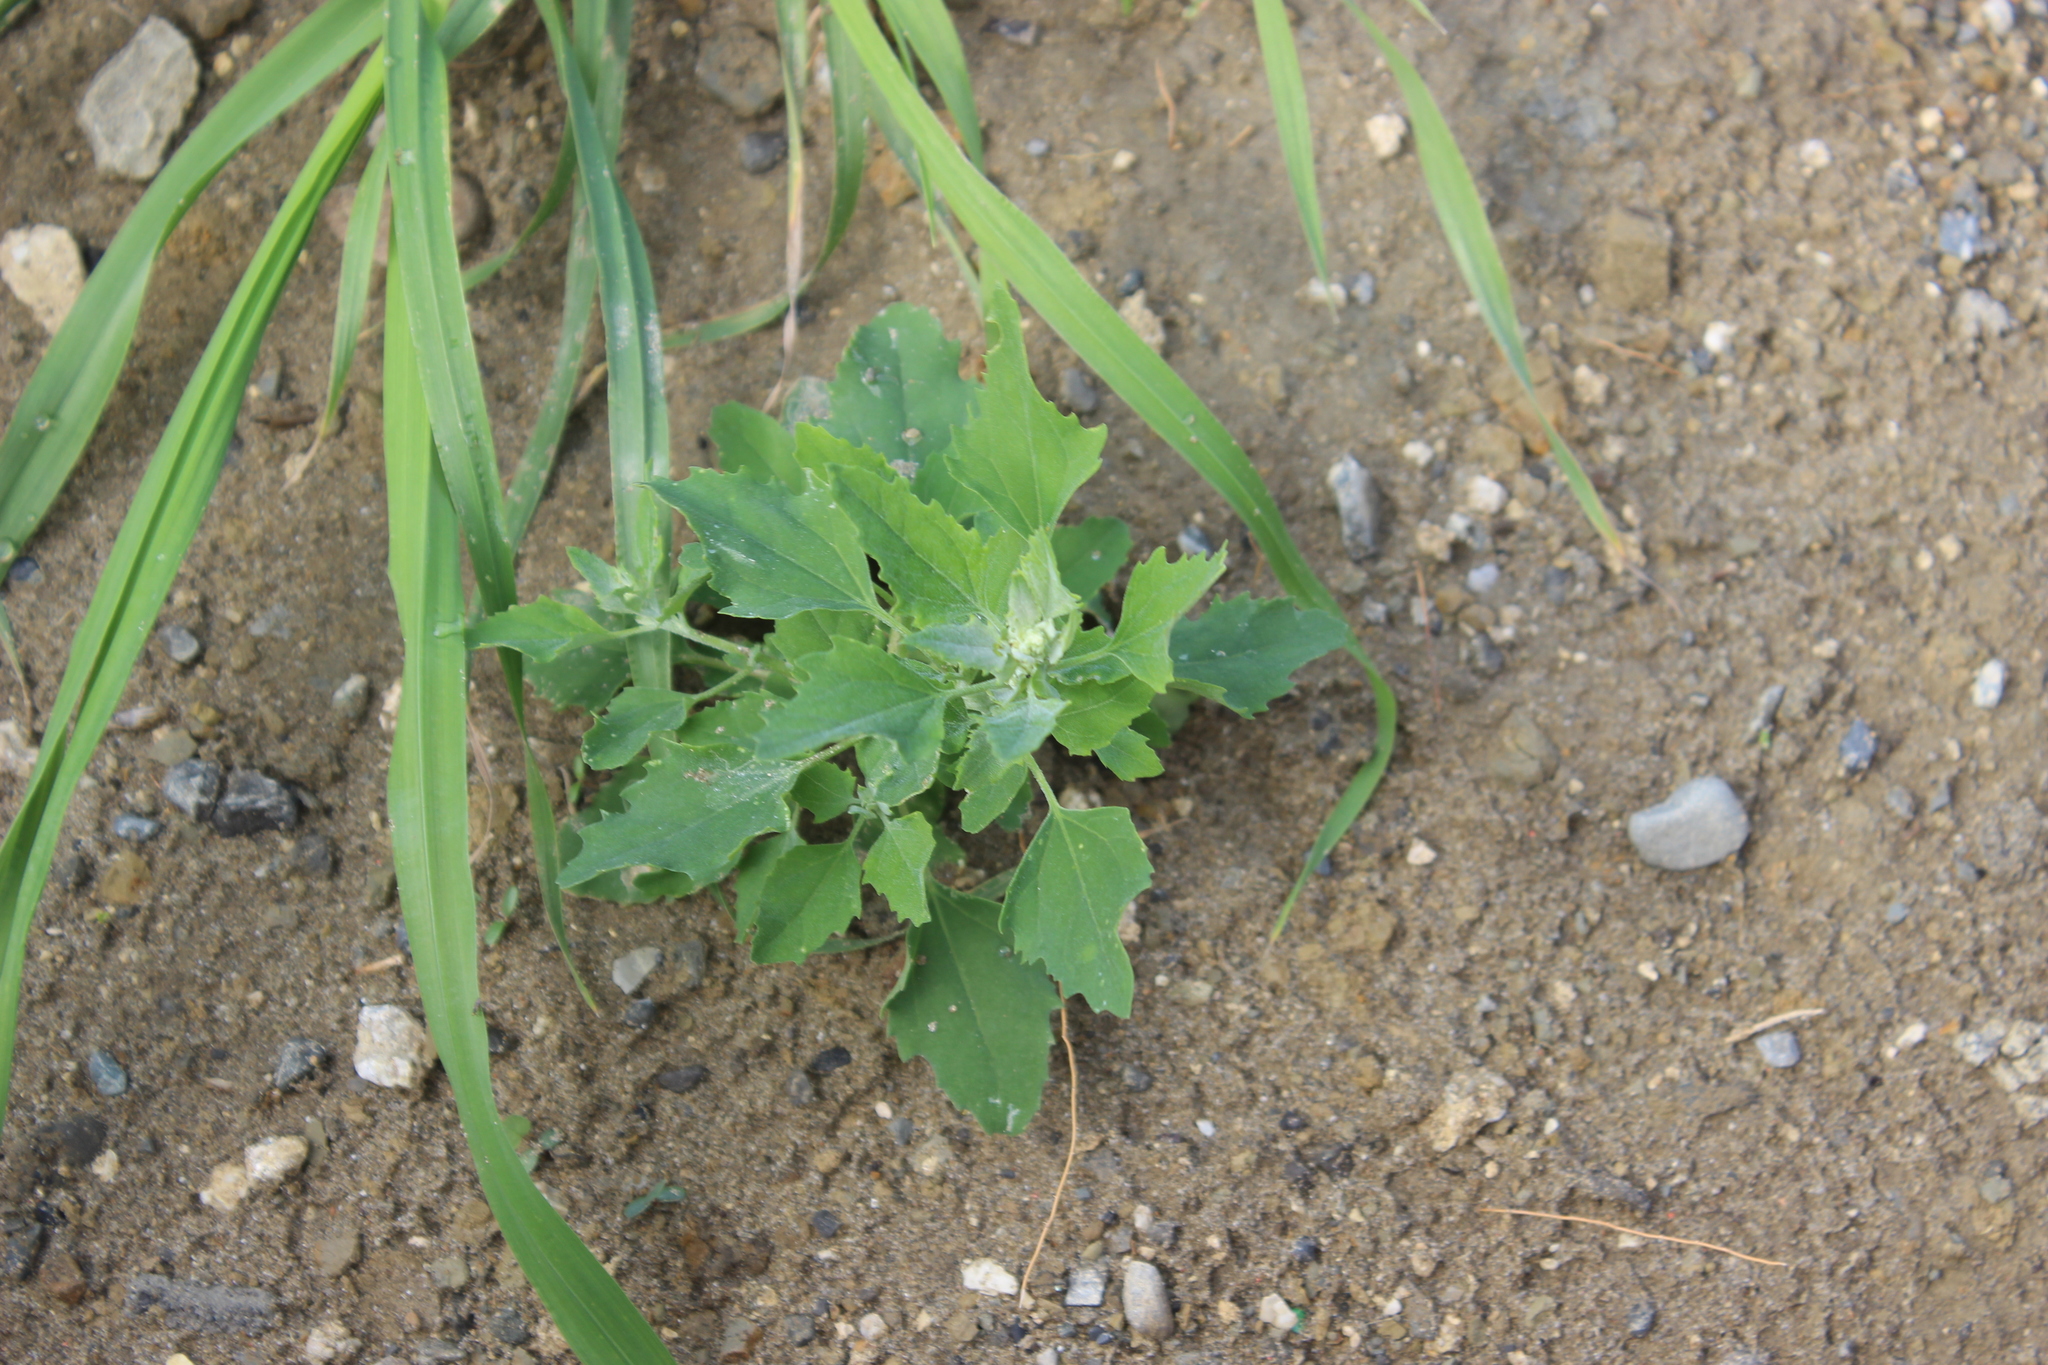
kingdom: Plantae
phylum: Tracheophyta
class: Magnoliopsida
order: Caryophyllales
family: Amaranthaceae
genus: Chenopodium
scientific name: Chenopodium album
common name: Fat-hen
